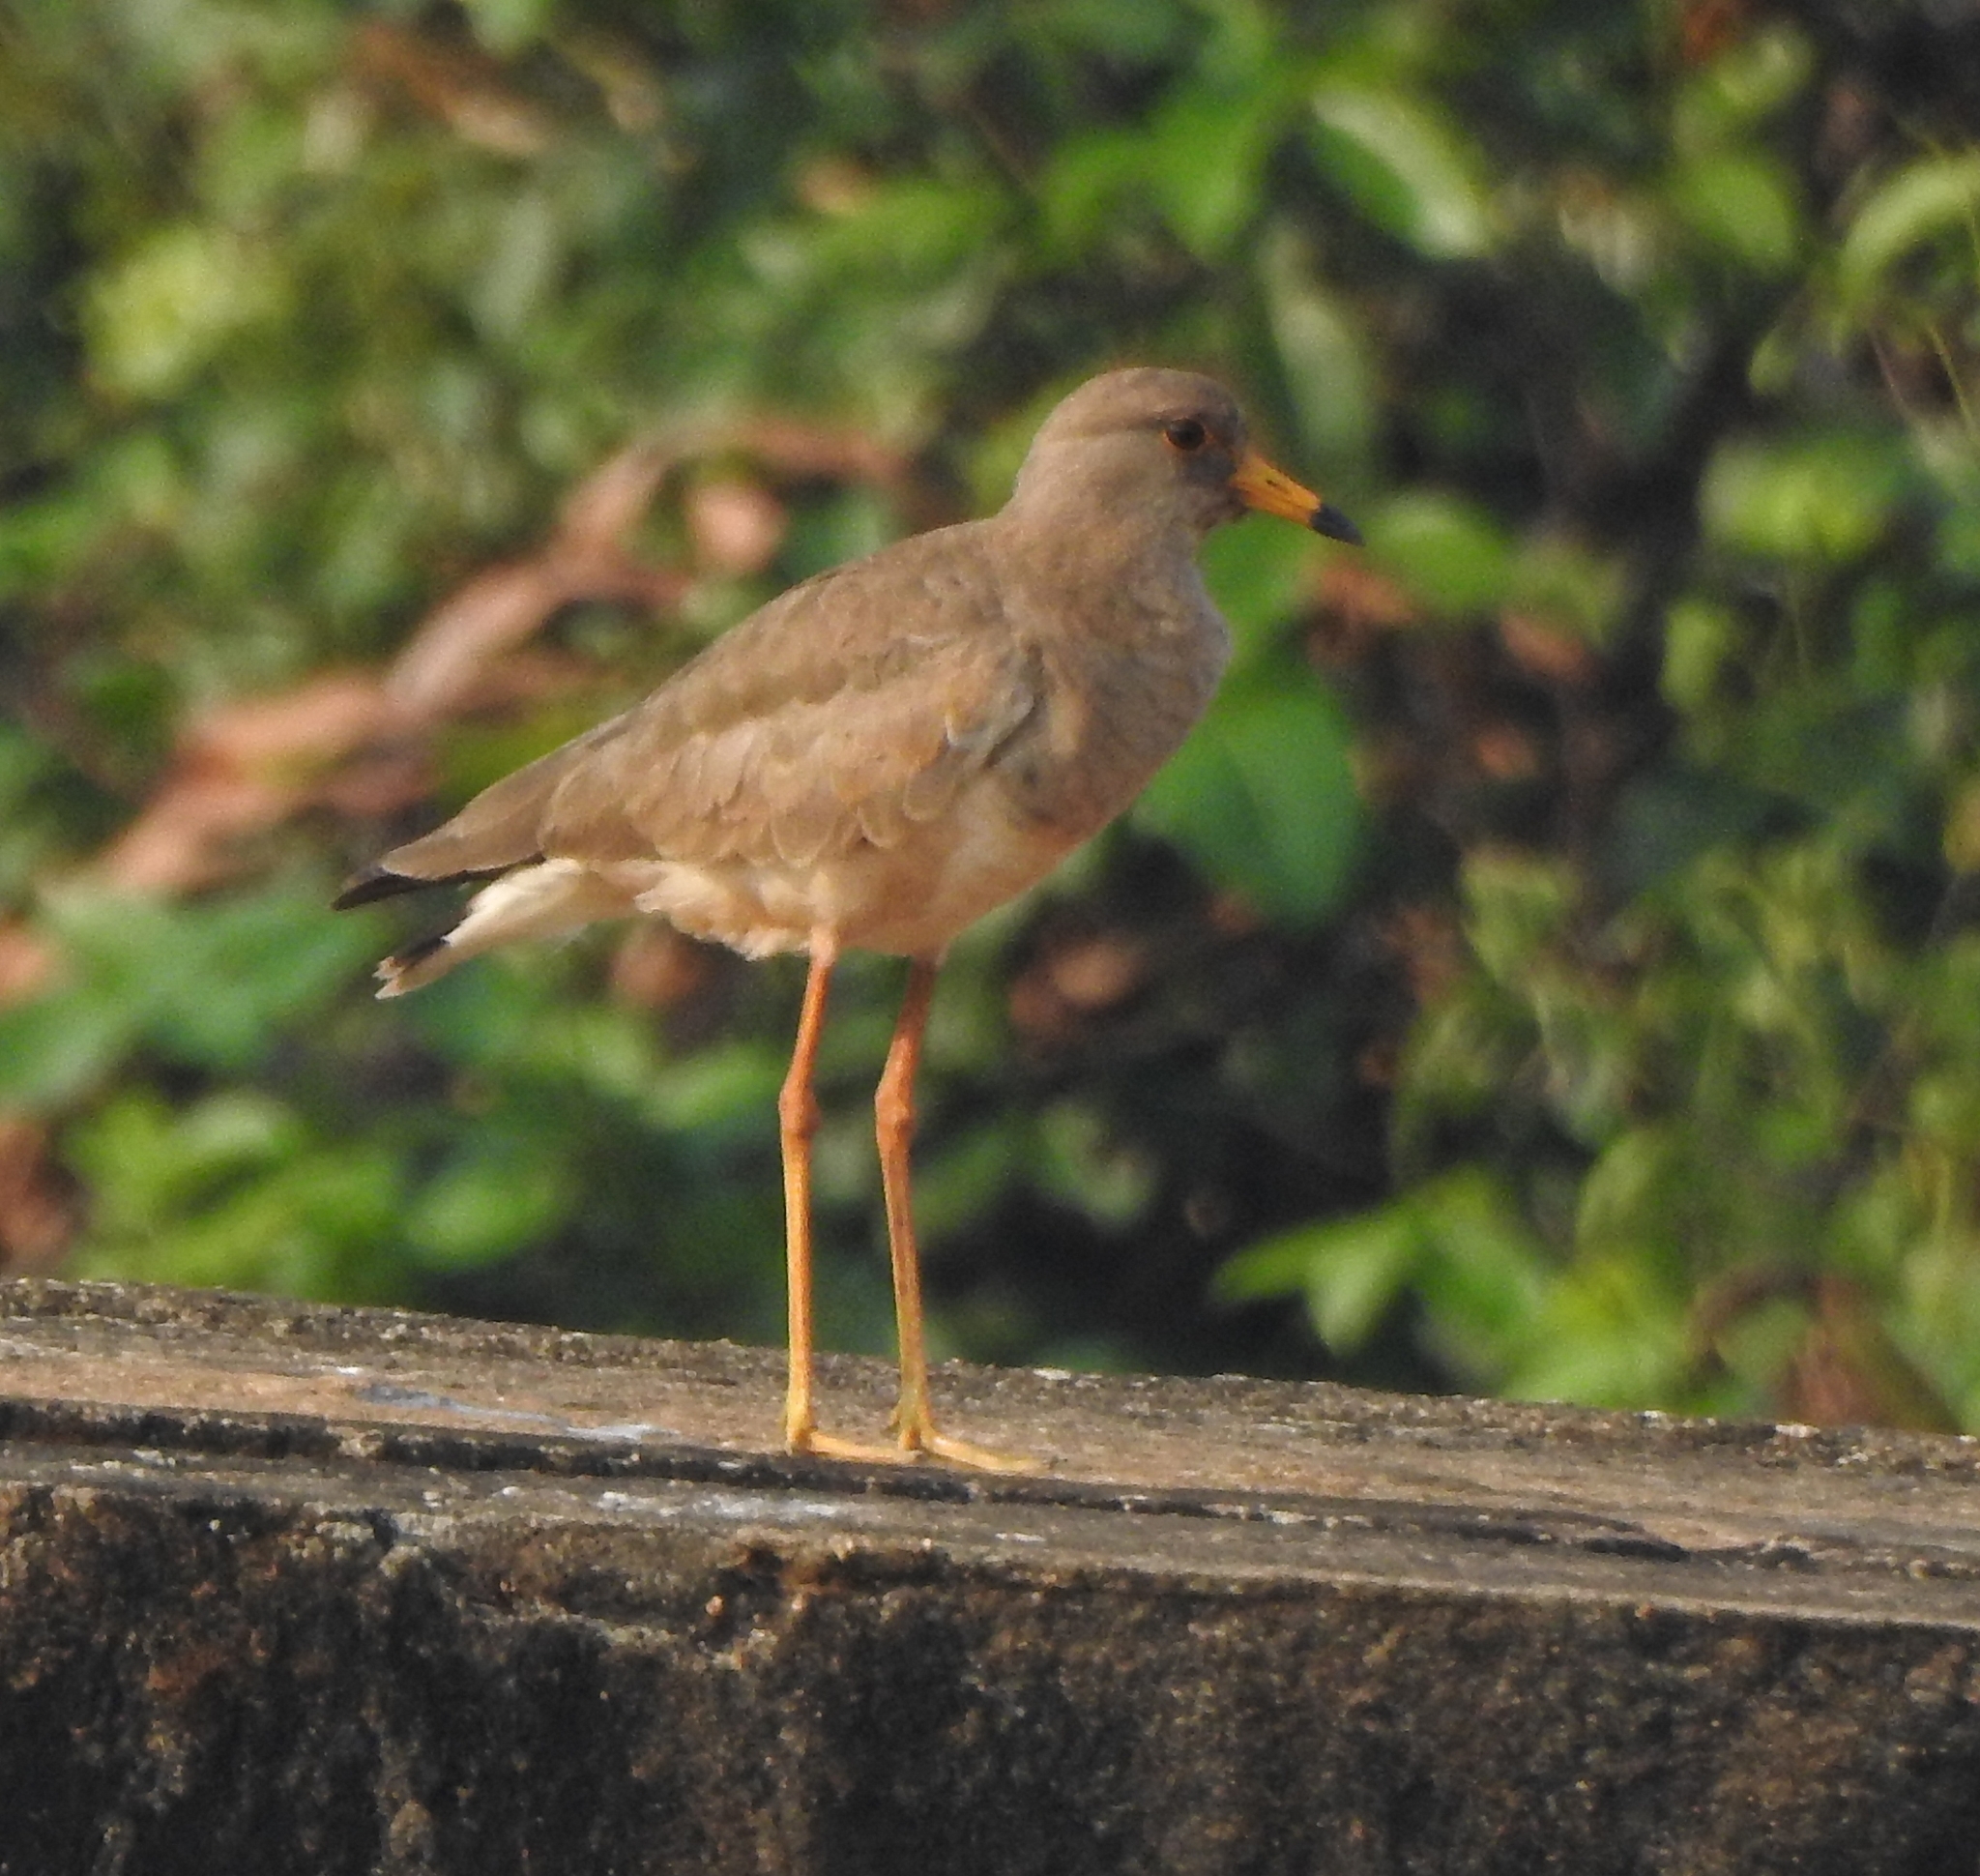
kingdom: Animalia
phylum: Chordata
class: Aves
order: Charadriiformes
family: Charadriidae
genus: Vanellus
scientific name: Vanellus cinereus
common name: Grey-headed lapwing
